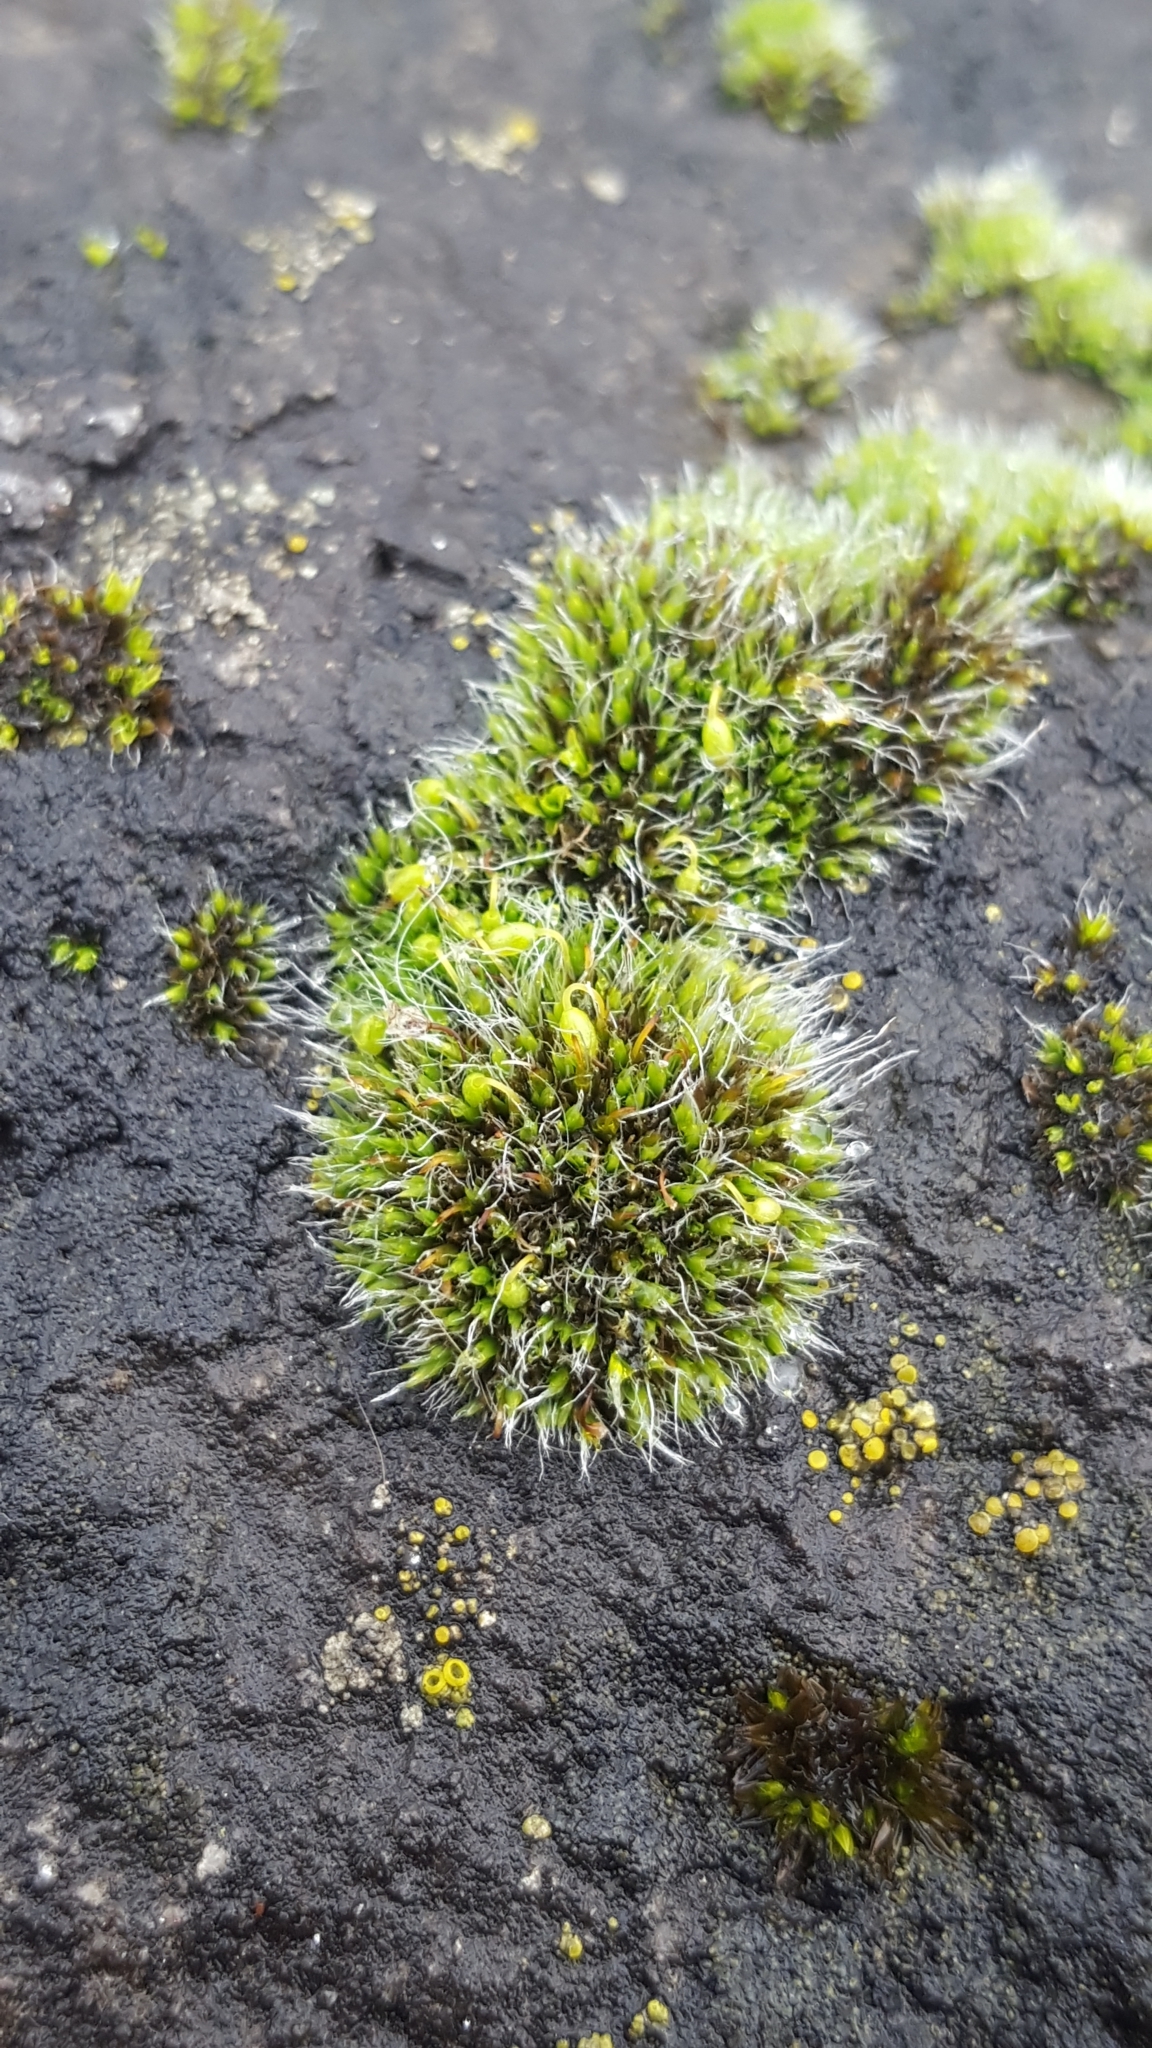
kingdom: Plantae
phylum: Bryophyta
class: Bryopsida
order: Grimmiales
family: Grimmiaceae
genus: Grimmia
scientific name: Grimmia pulvinata
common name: Grey-cushioned grimmia
